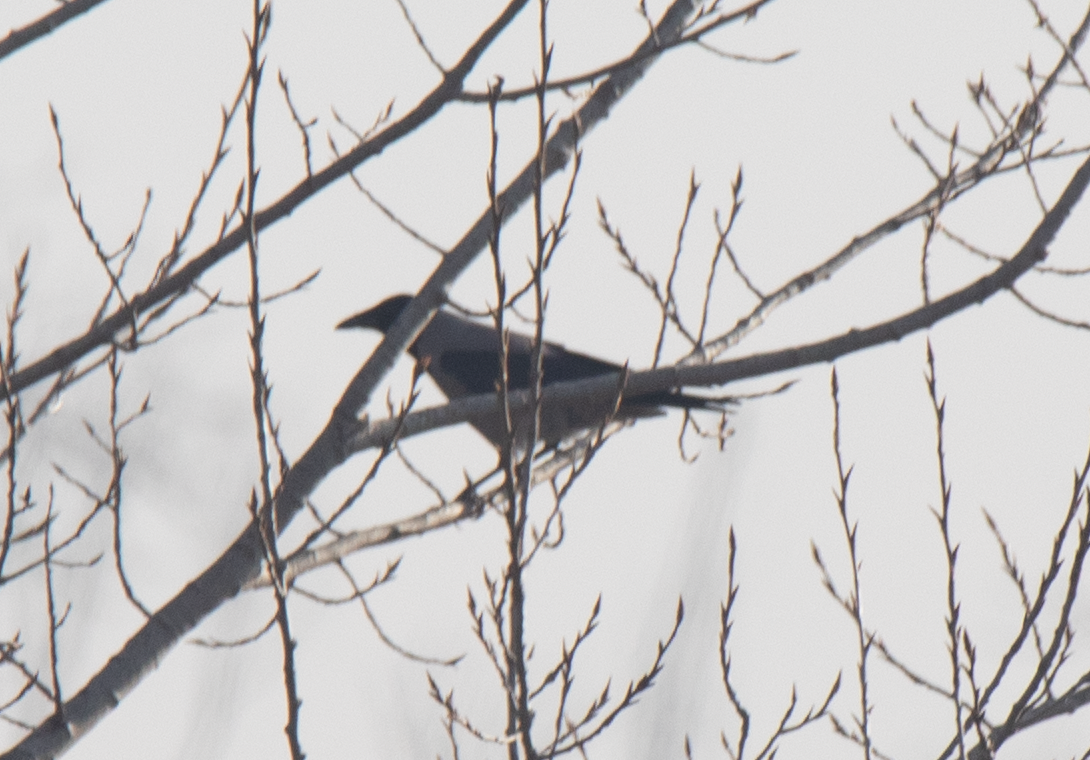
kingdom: Animalia
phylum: Chordata
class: Aves
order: Passeriformes
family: Corvidae
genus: Corvus
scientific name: Corvus cornix
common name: Hooded crow
